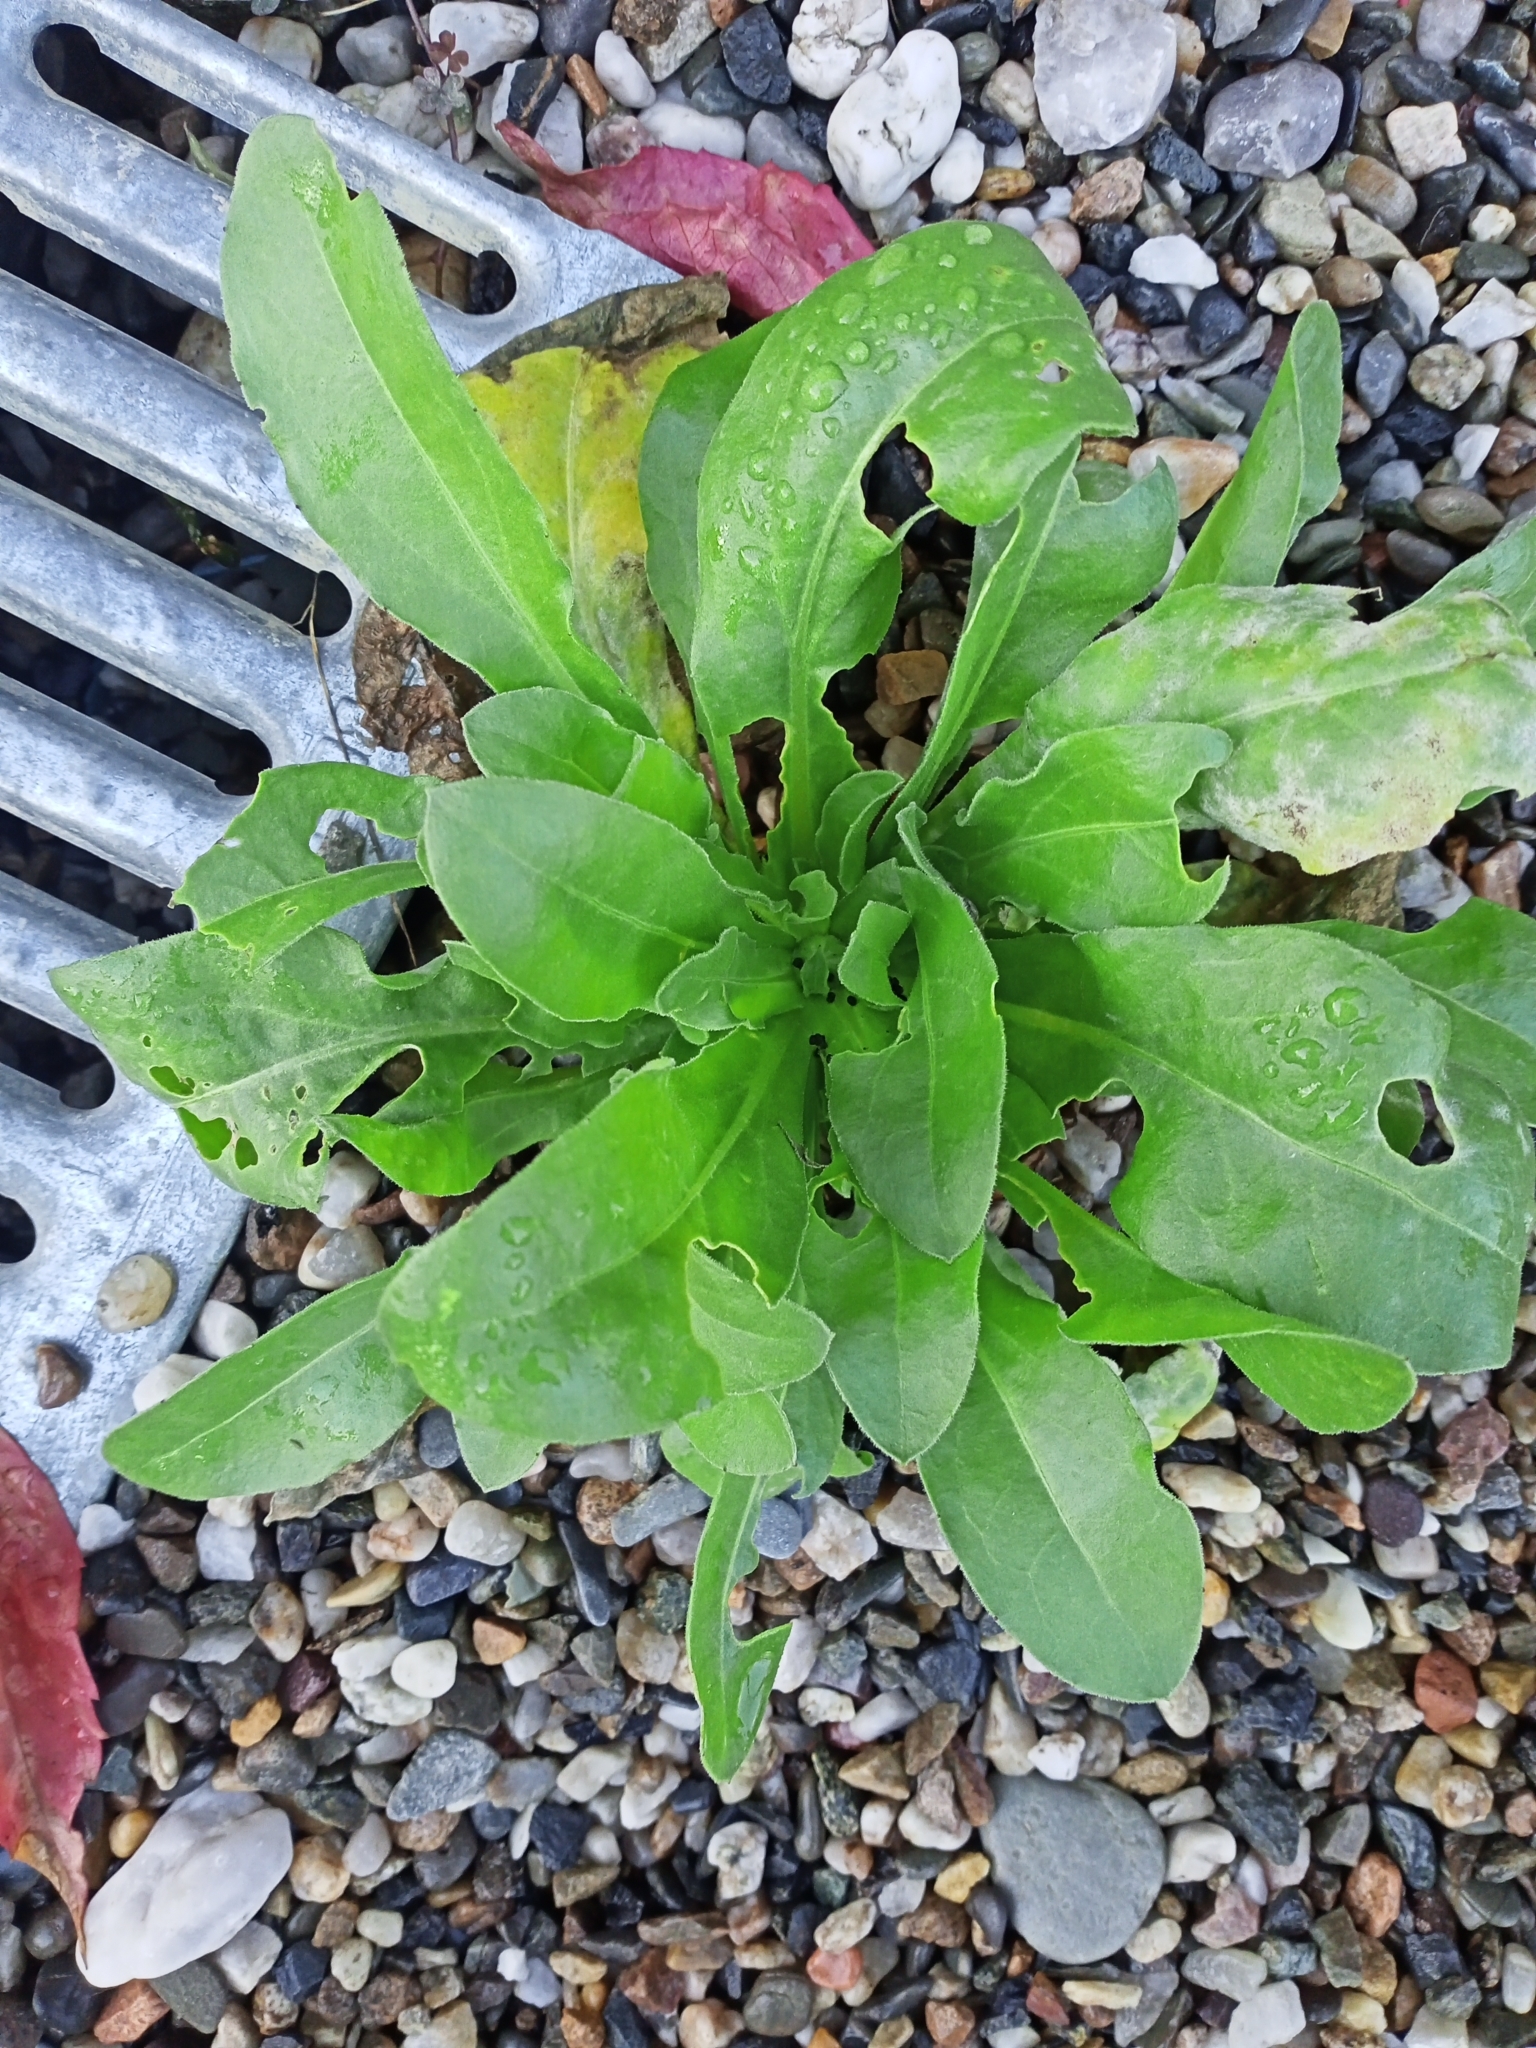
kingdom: Plantae
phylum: Tracheophyta
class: Magnoliopsida
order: Asterales
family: Asteraceae
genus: Calendula
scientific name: Calendula officinalis
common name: Pot marigold
